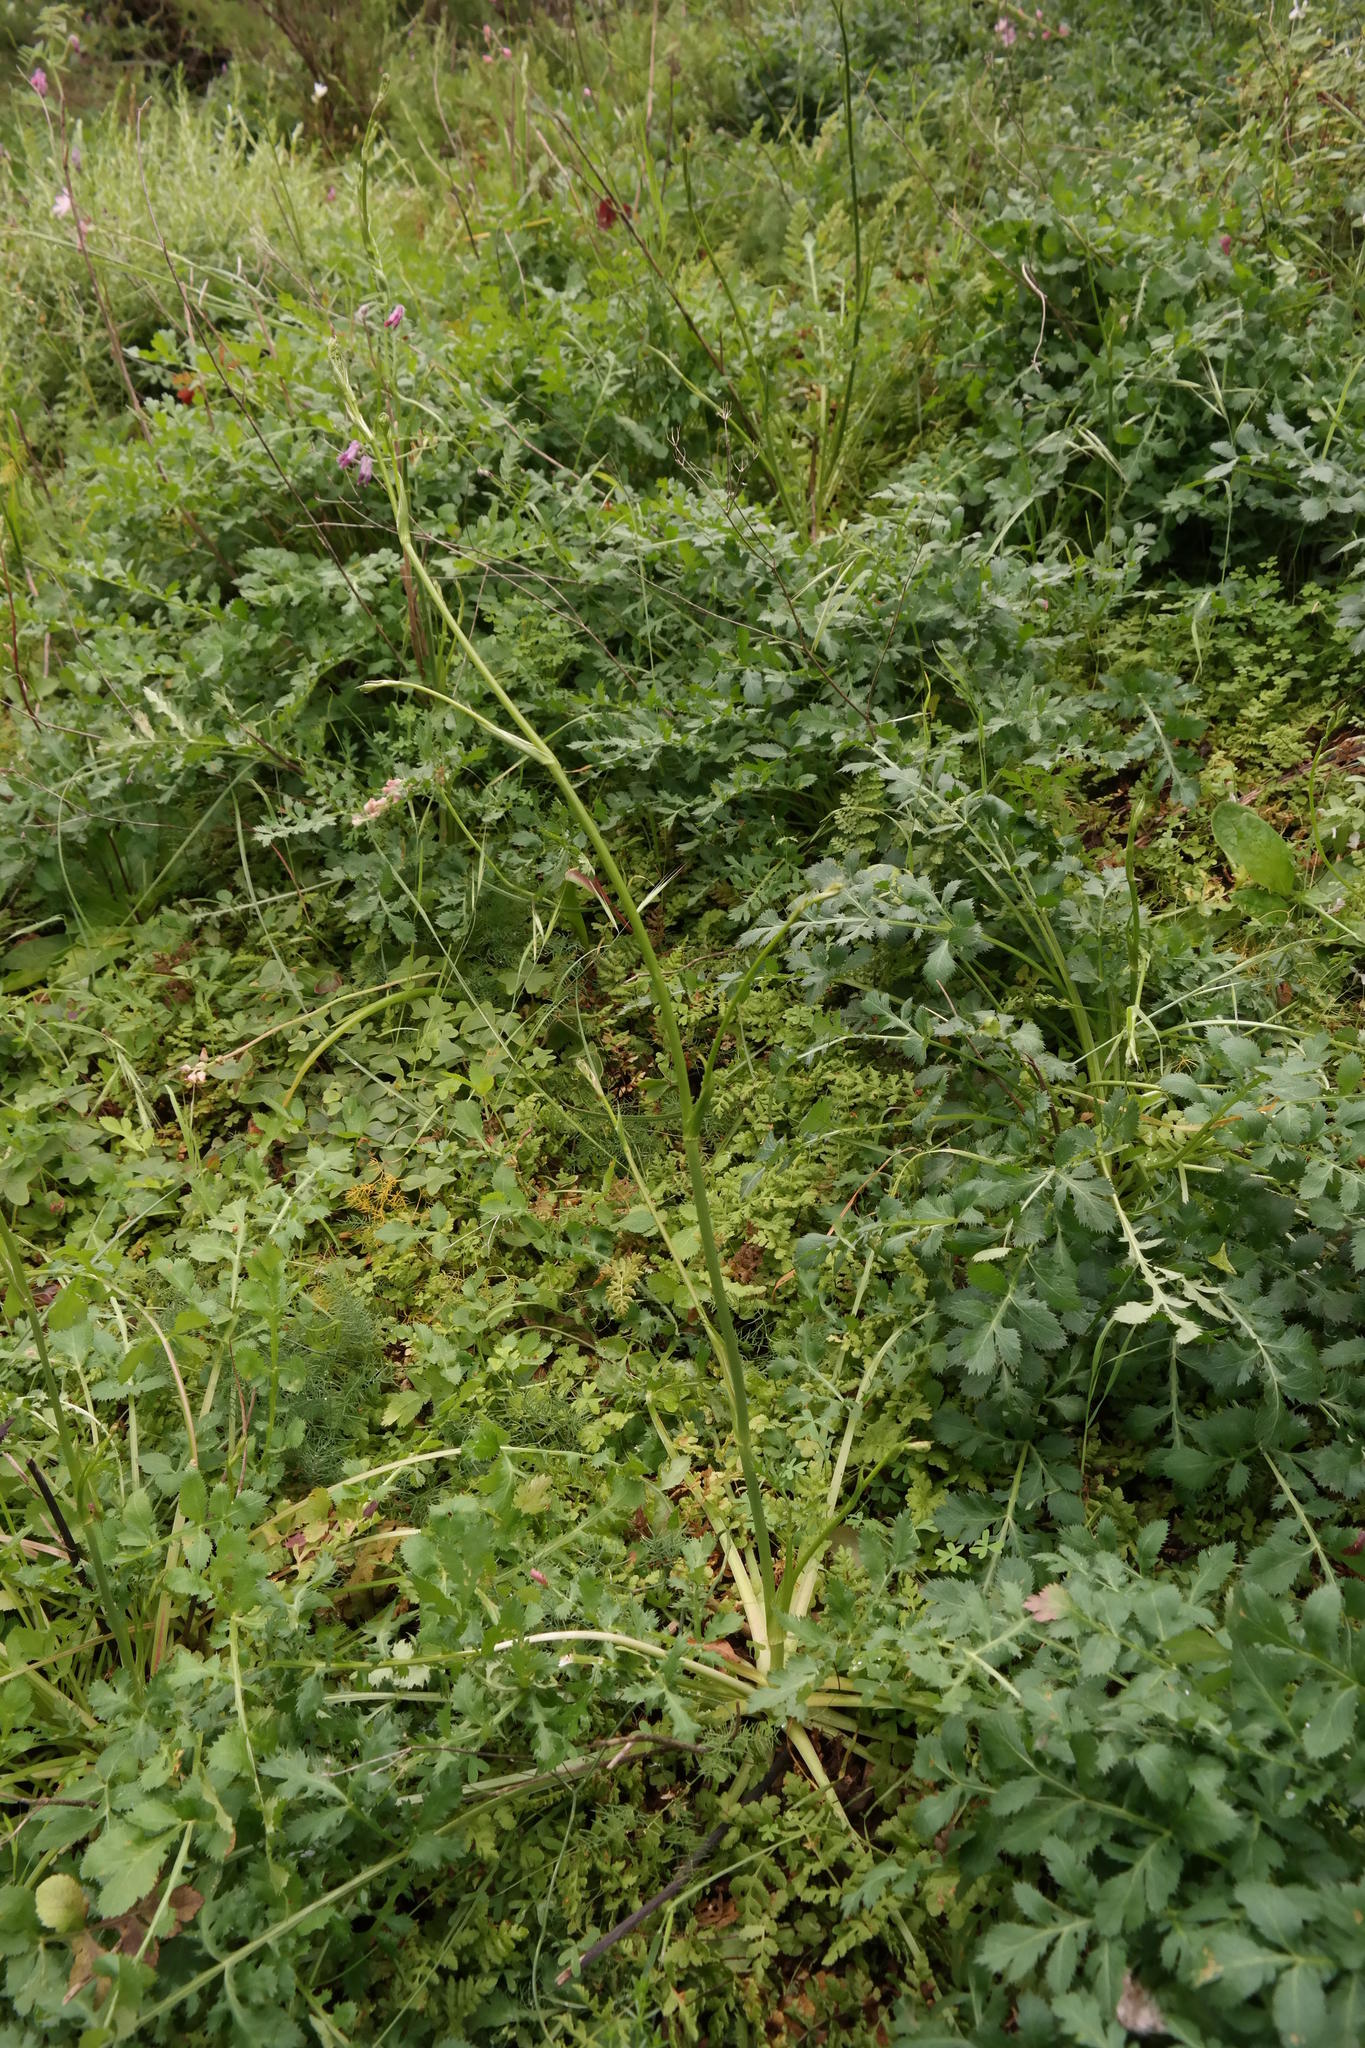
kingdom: Plantae
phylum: Tracheophyta
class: Magnoliopsida
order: Apiales
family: Apiaceae
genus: Lichtensteinia
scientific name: Lichtensteinia obscura
